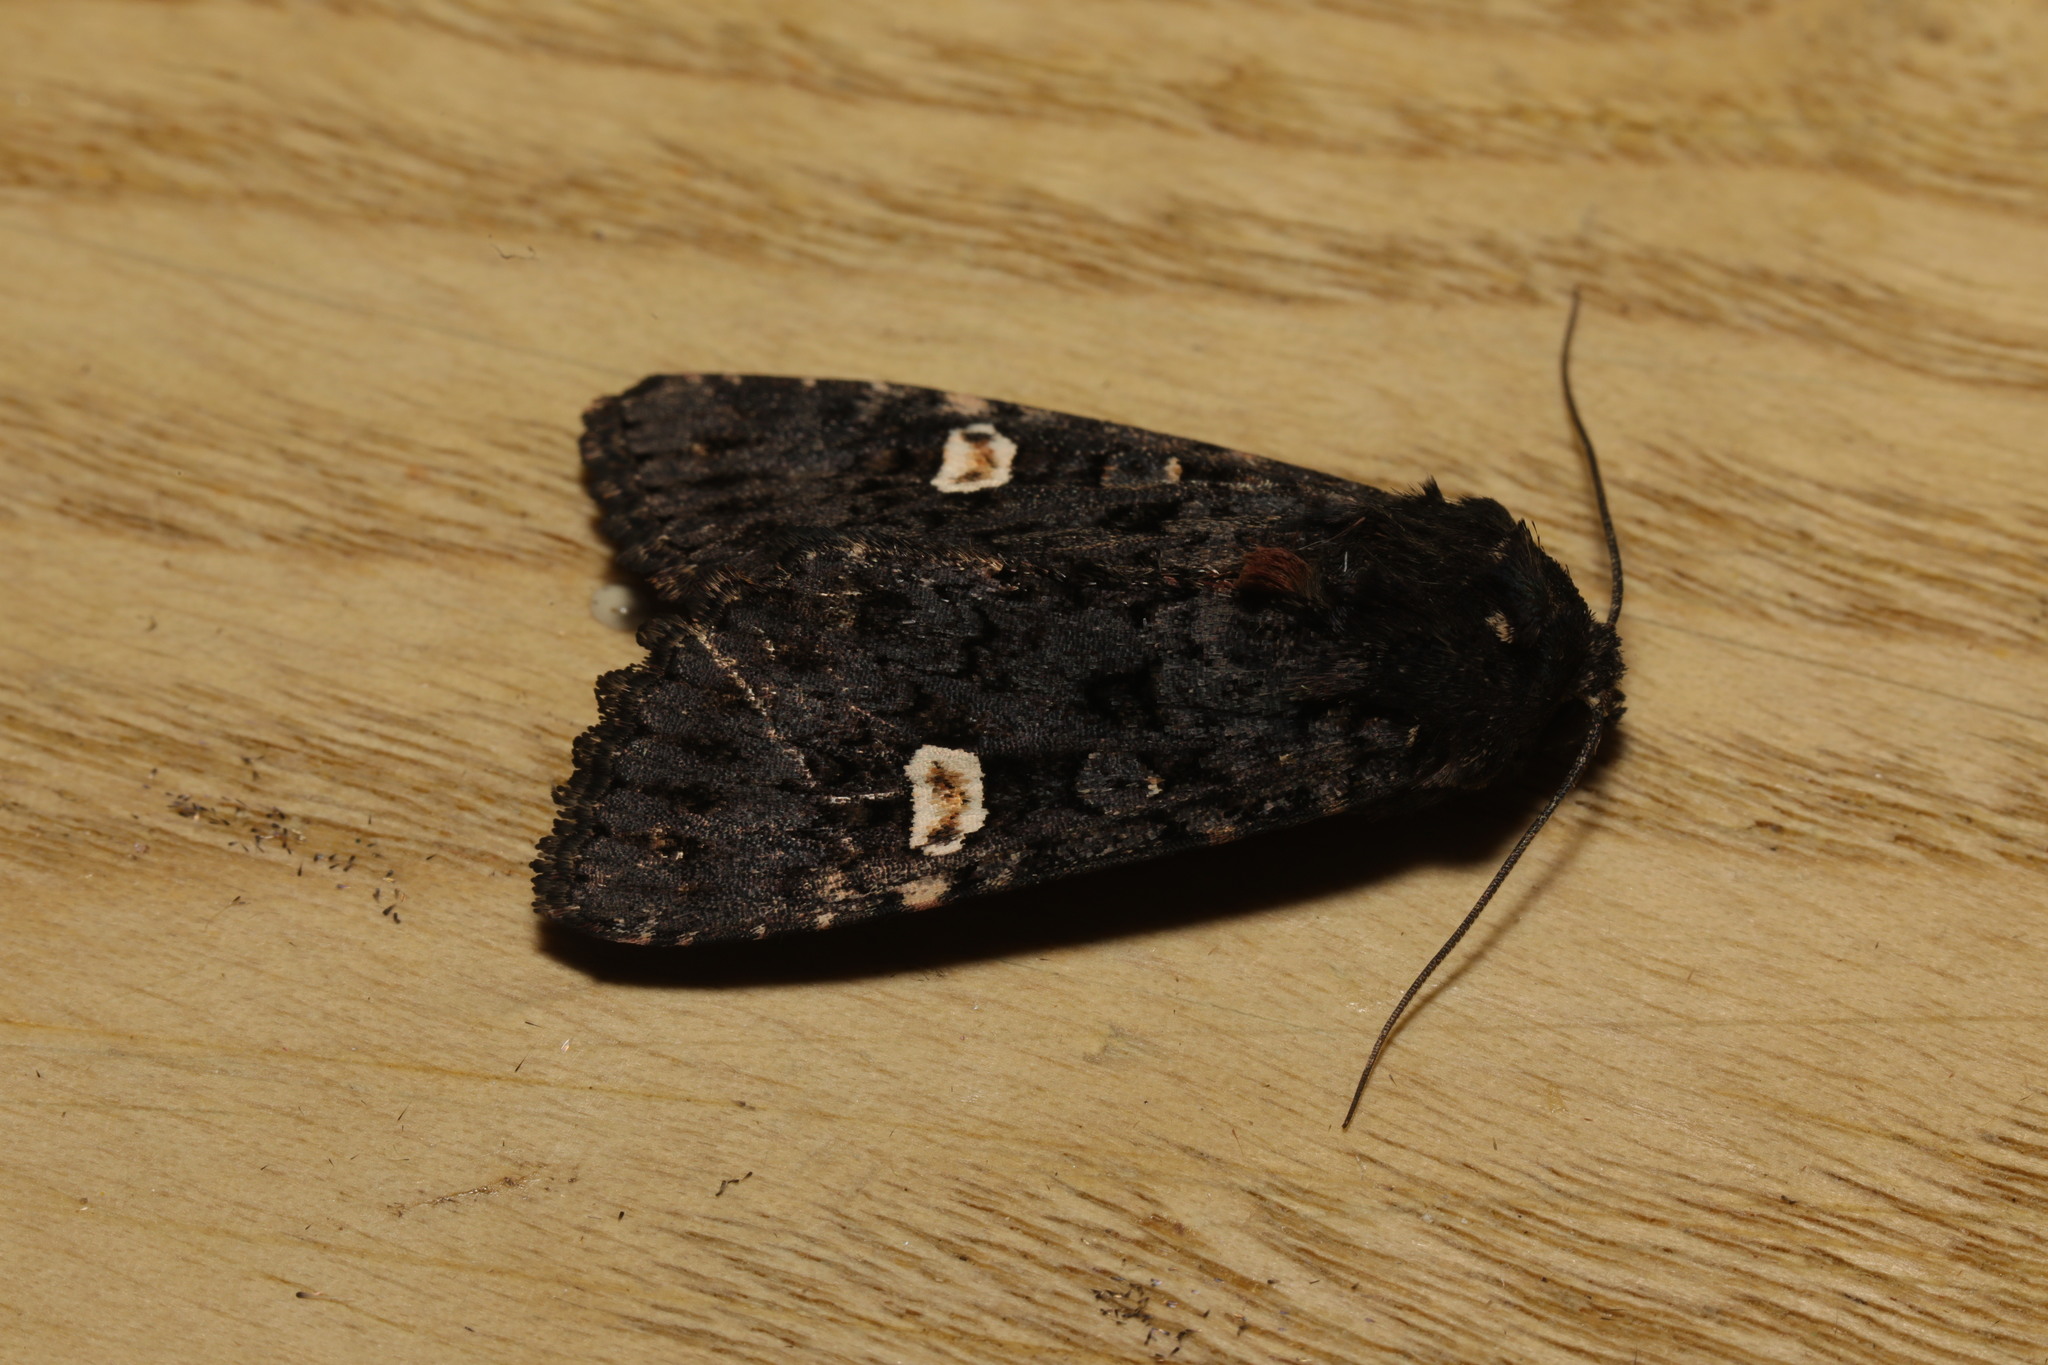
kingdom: Animalia
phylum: Arthropoda
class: Insecta
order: Lepidoptera
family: Noctuidae
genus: Melanchra
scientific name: Melanchra persicariae
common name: Dot moth
